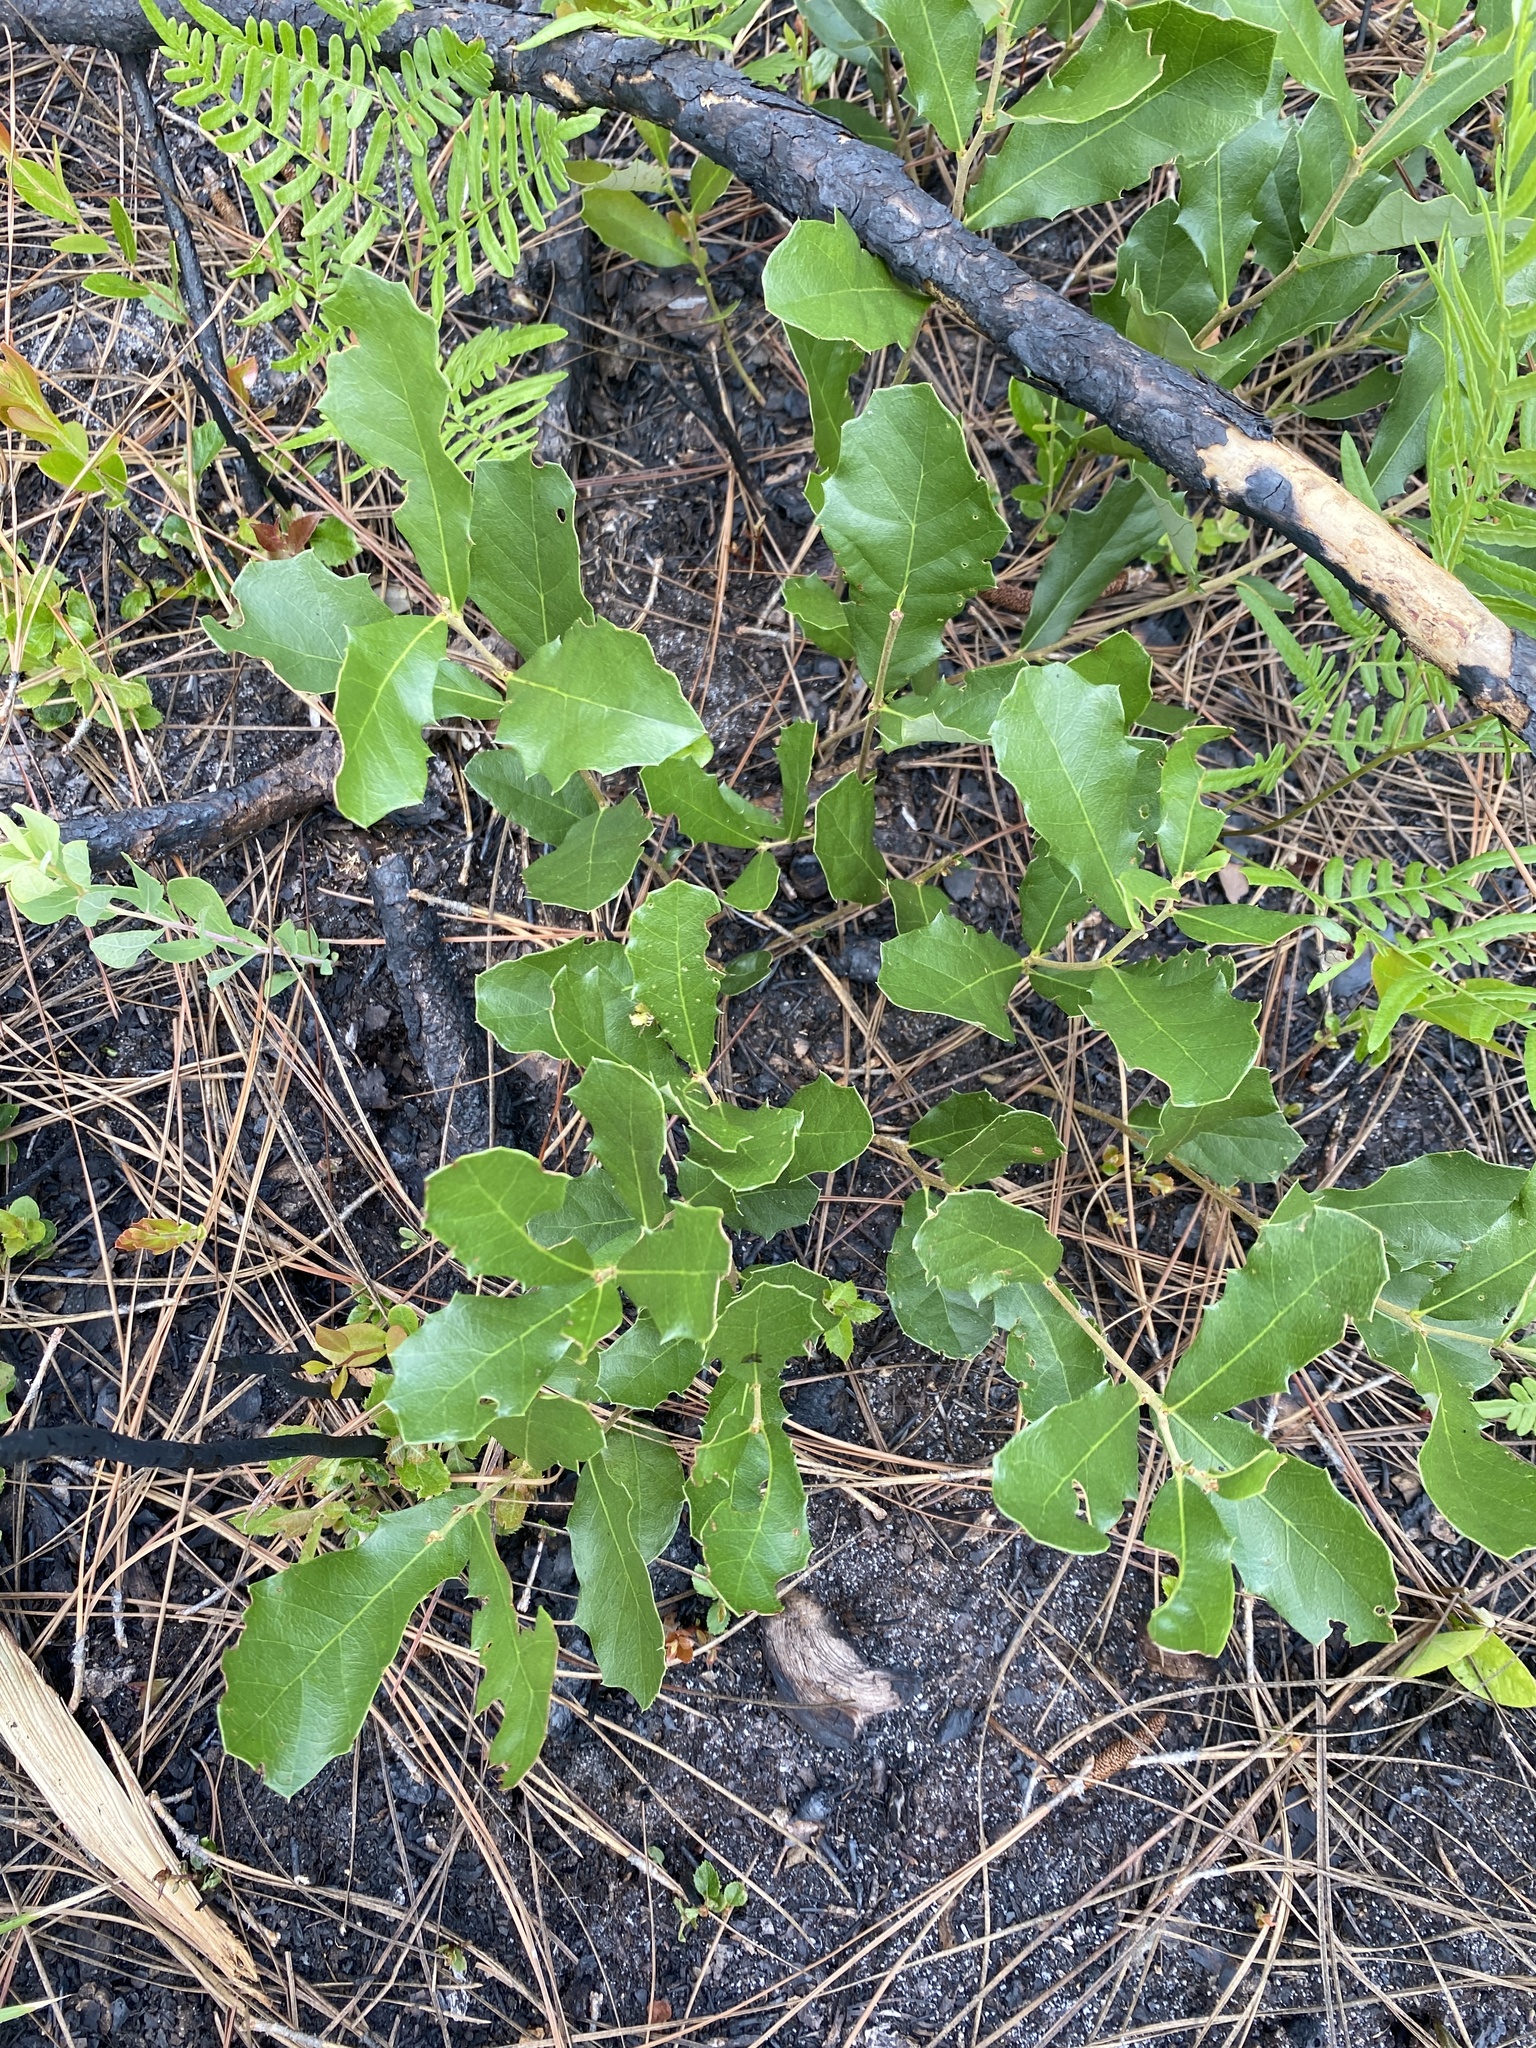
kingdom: Plantae
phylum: Tracheophyta
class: Magnoliopsida
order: Fagales
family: Fagaceae
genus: Quercus
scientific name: Quercus minima
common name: Dwarf live oak
